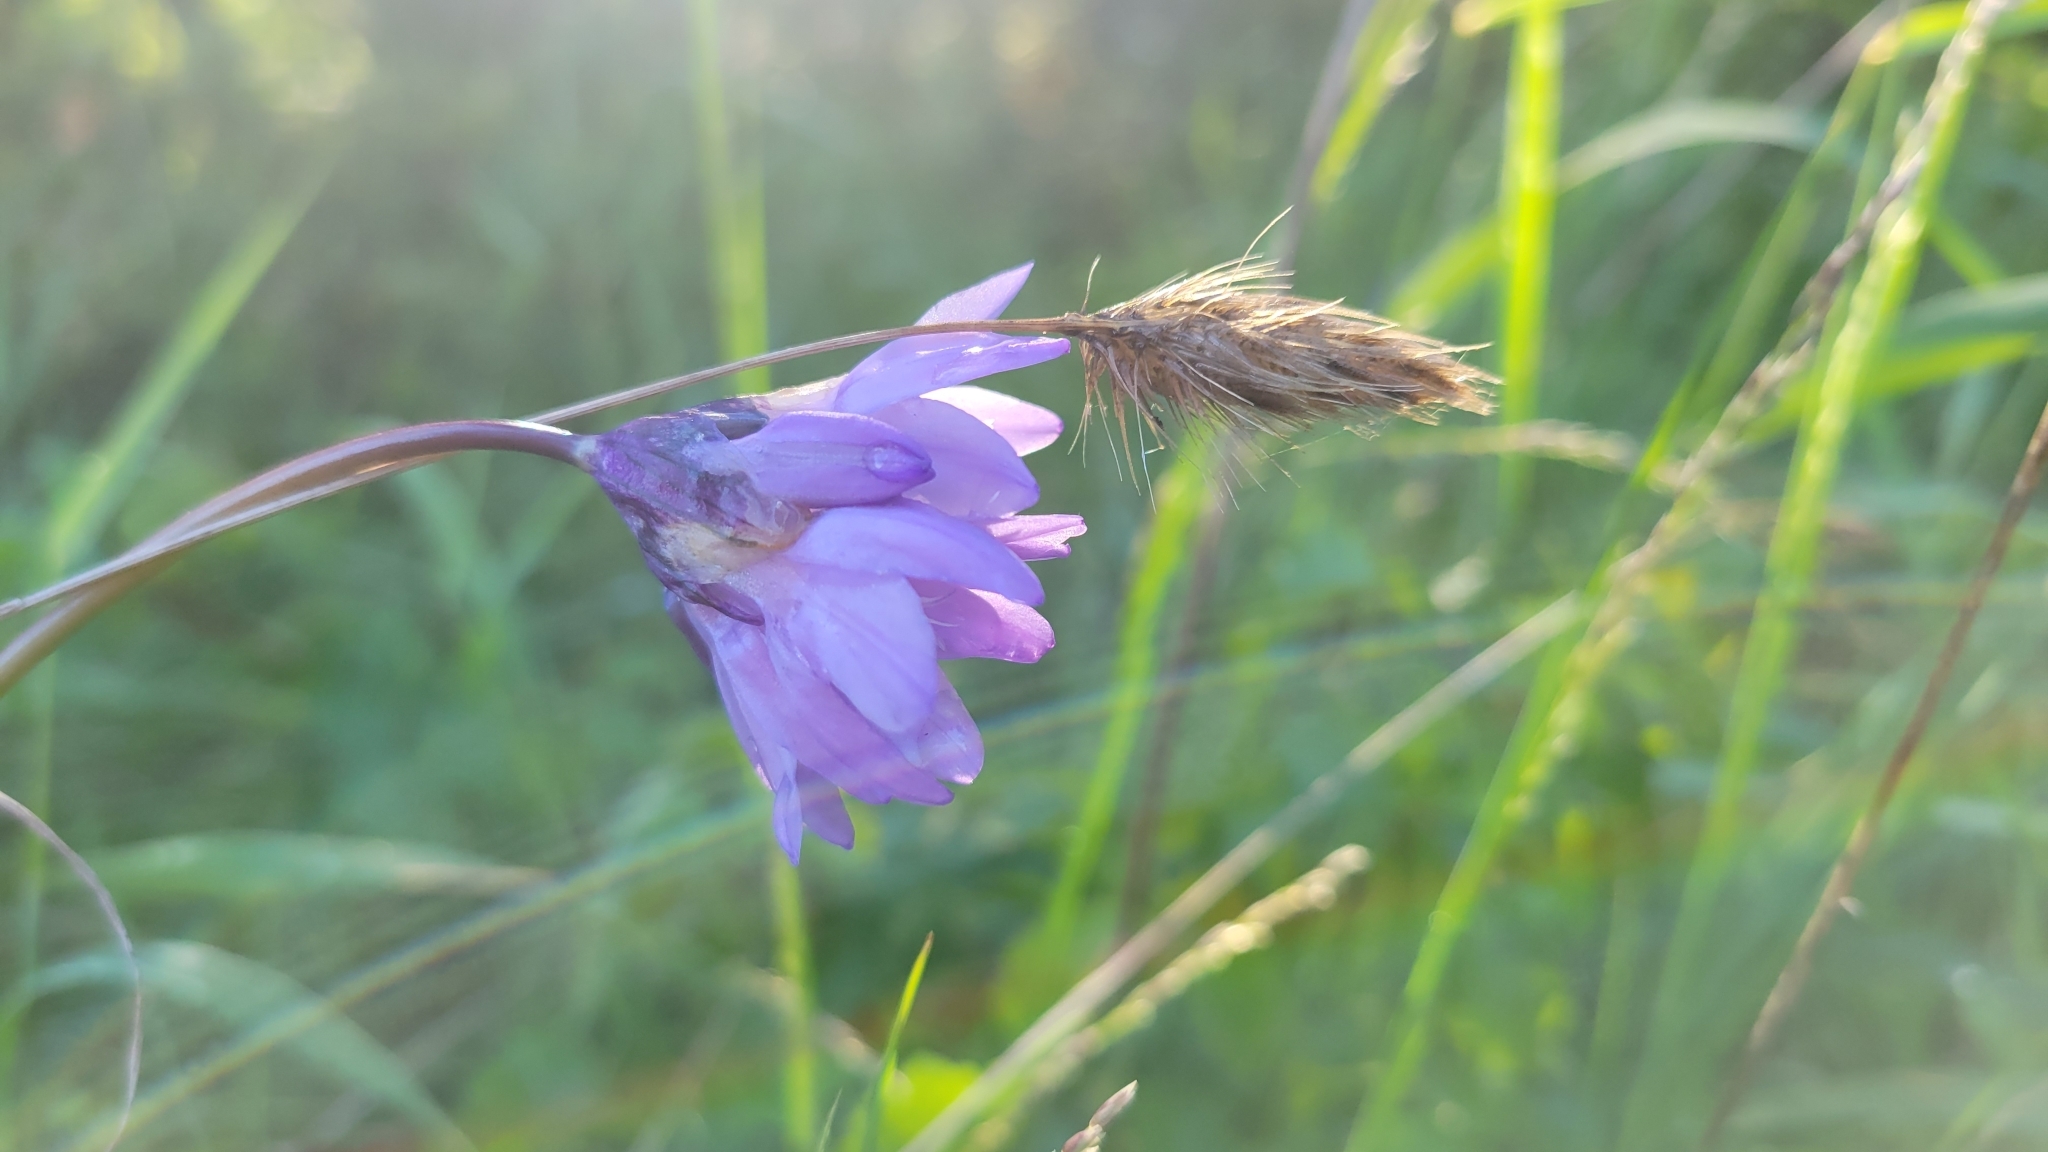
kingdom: Plantae
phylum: Tracheophyta
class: Liliopsida
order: Asparagales
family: Asparagaceae
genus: Dipterostemon
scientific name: Dipterostemon capitatus
